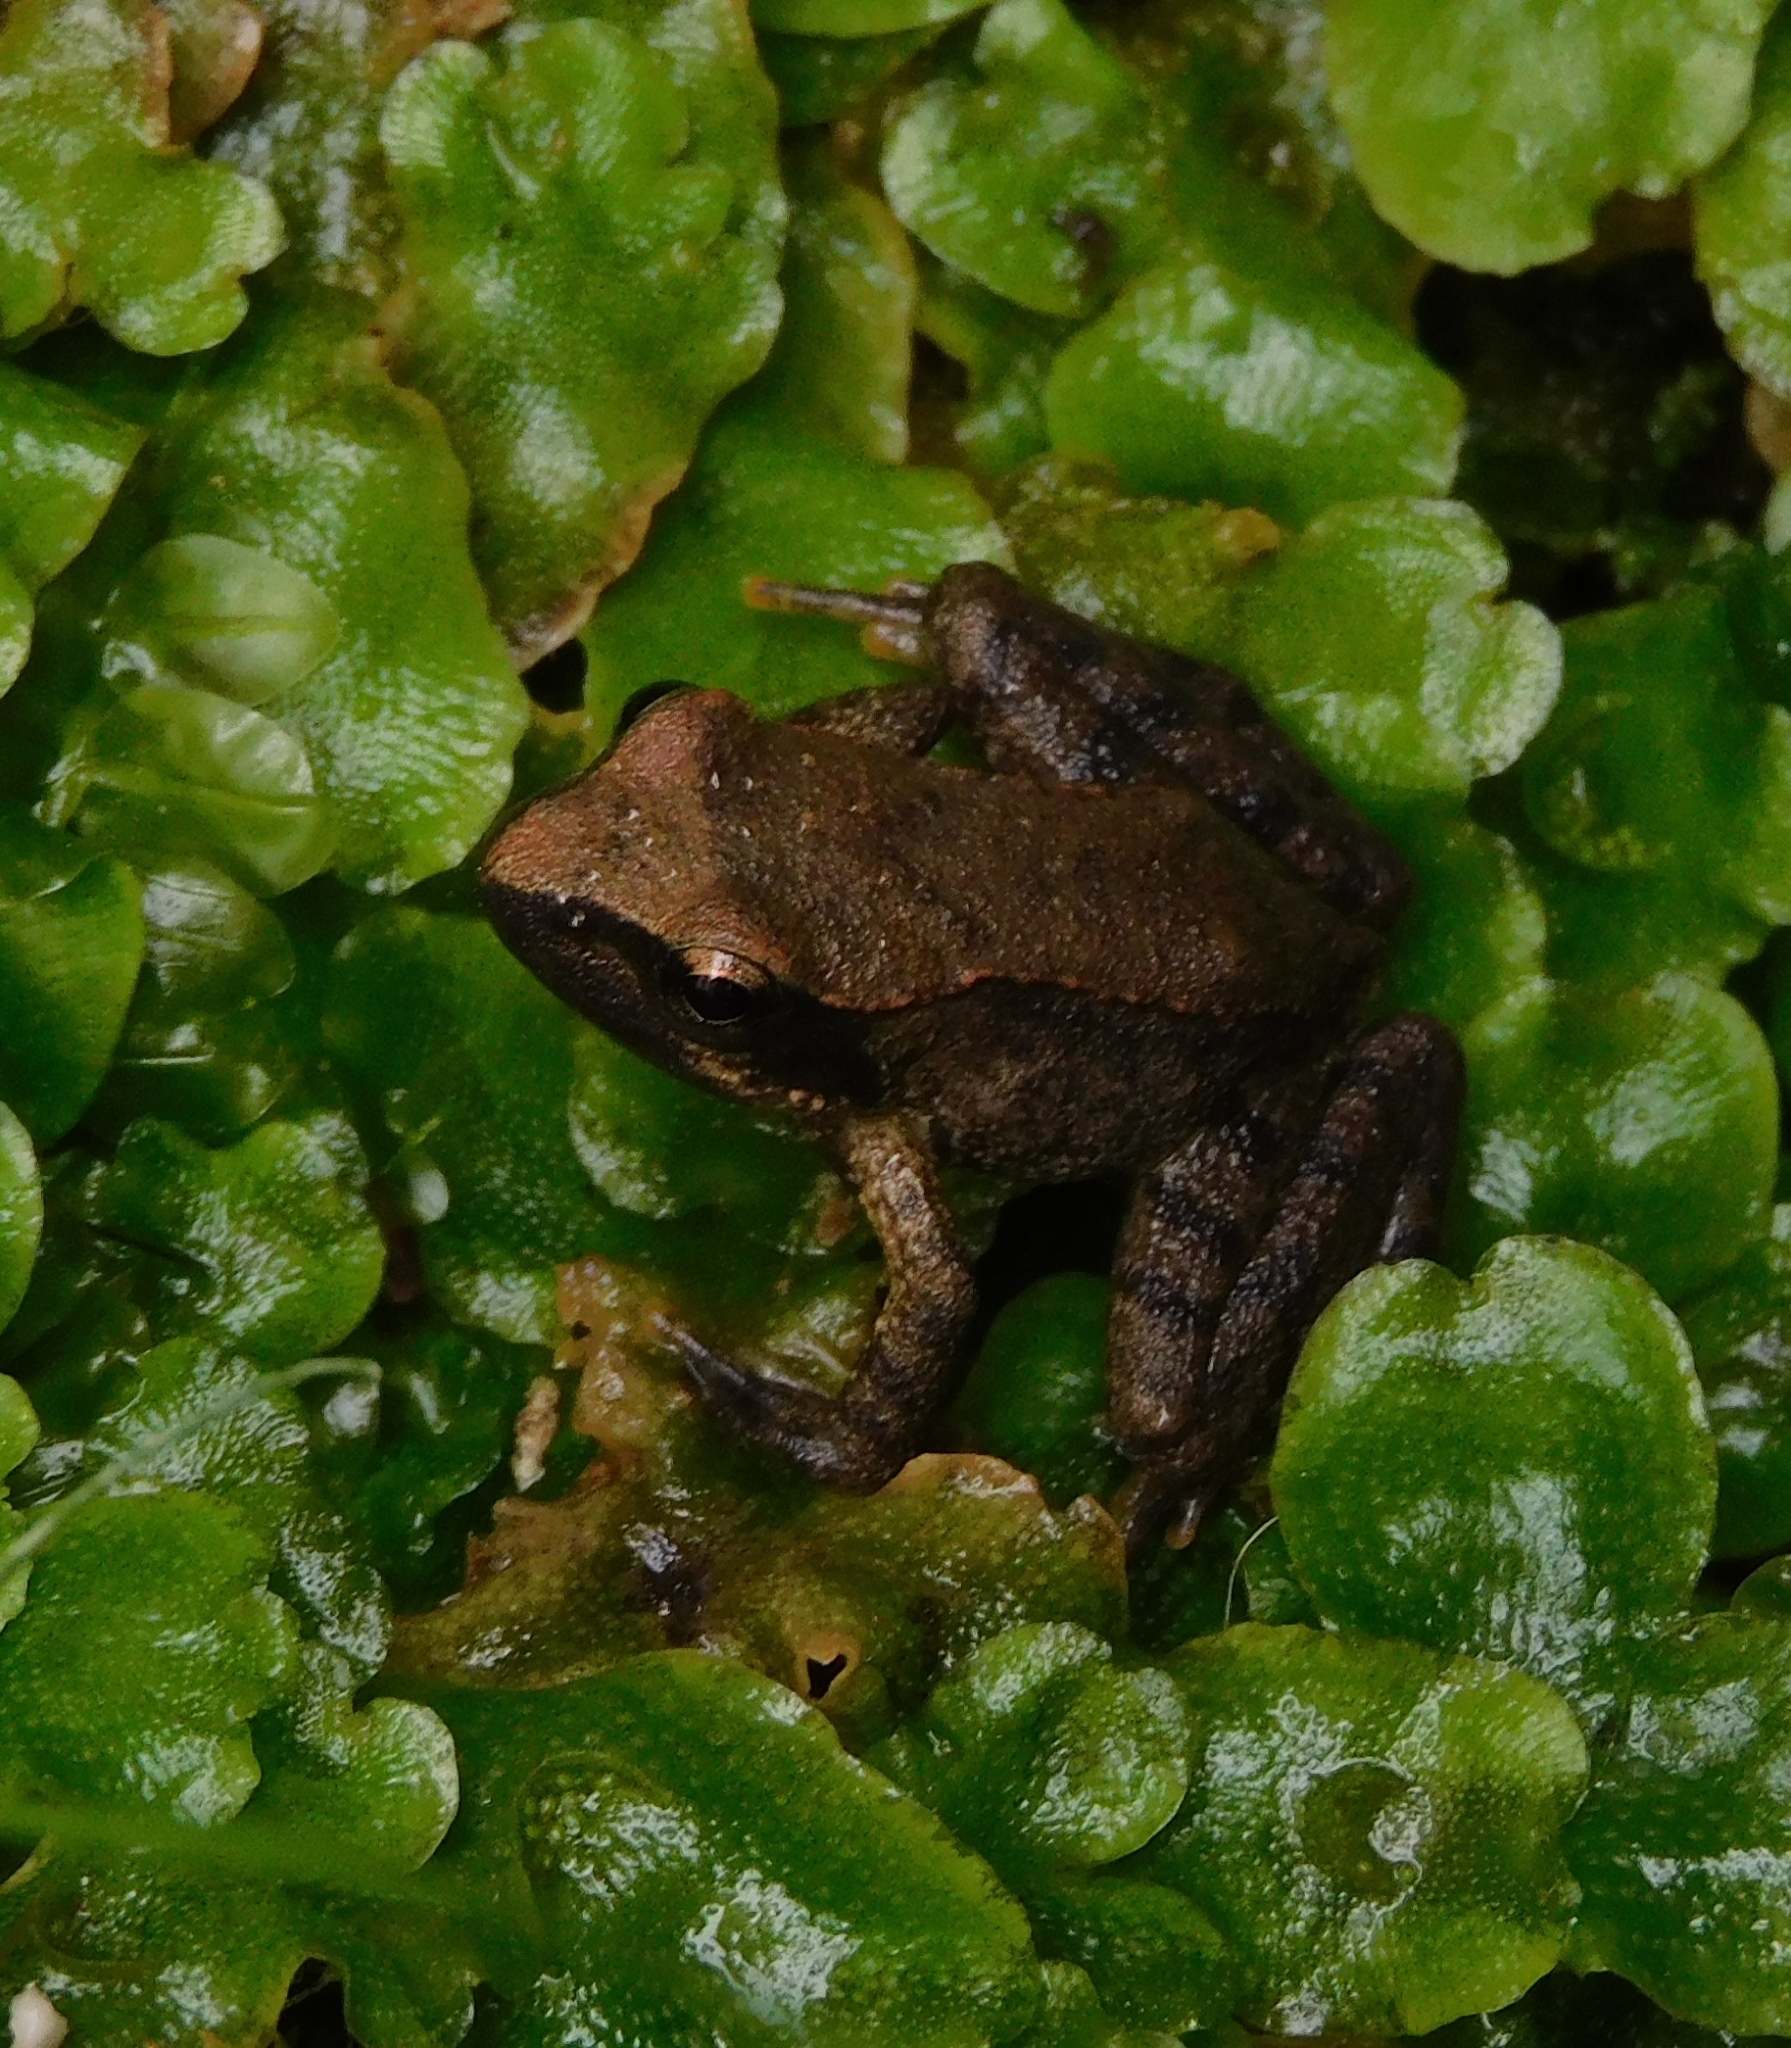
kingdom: Animalia
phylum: Chordata
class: Amphibia
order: Anura
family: Ranidae
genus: Rana
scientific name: Rana italica
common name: Italian stream frog
